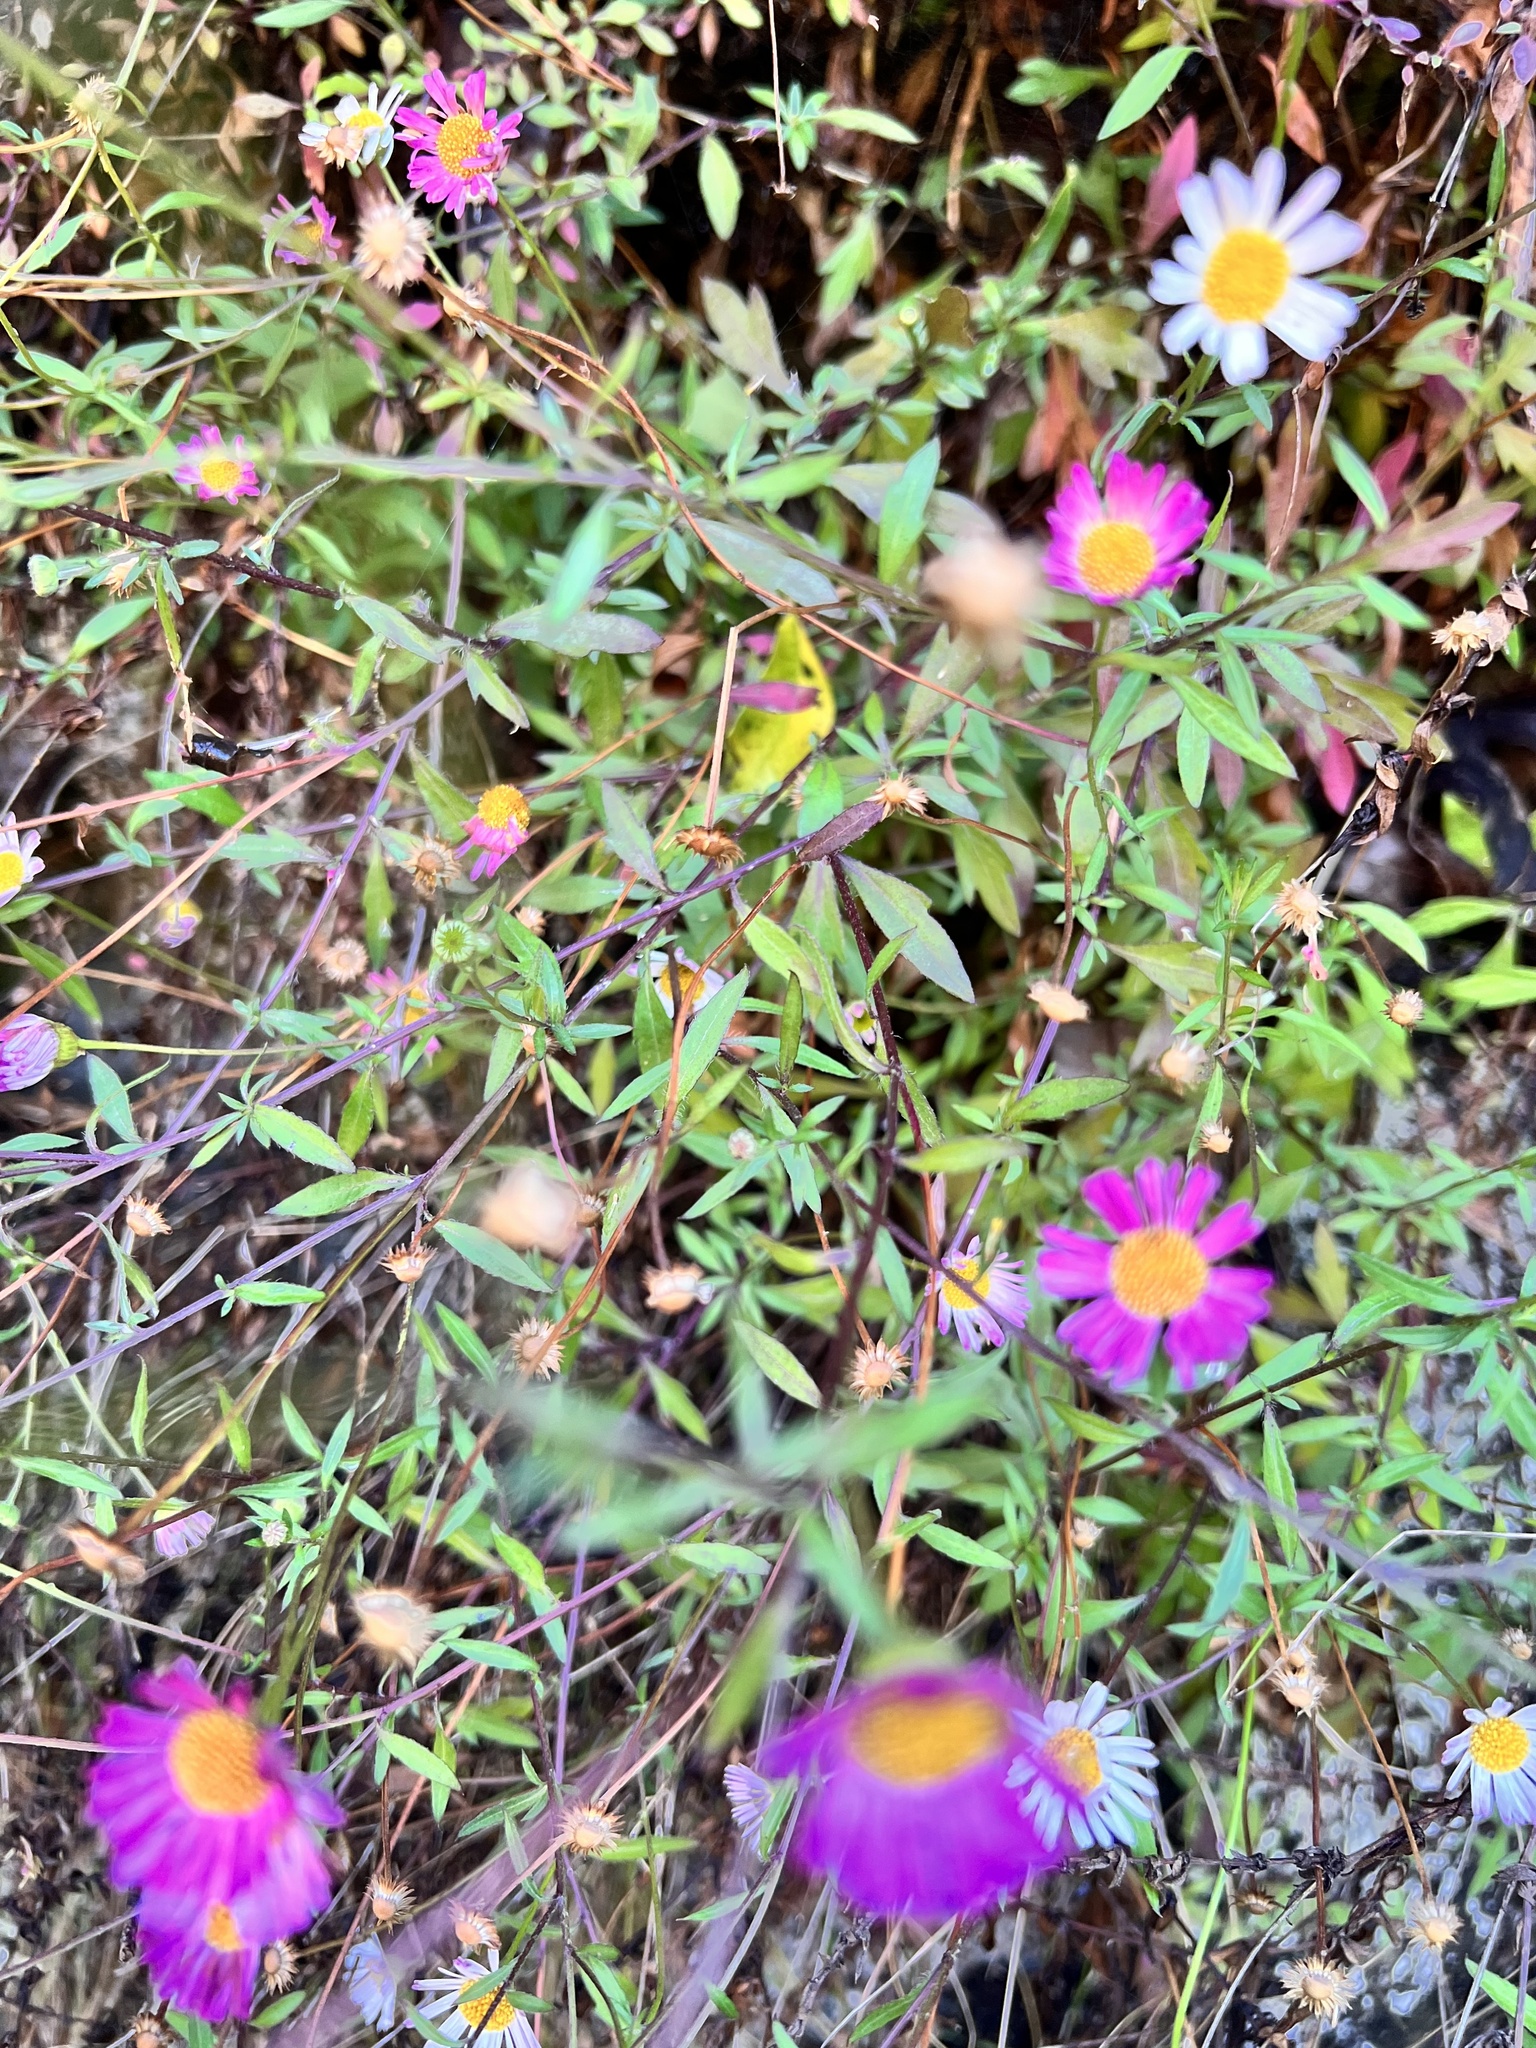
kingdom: Plantae
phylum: Tracheophyta
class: Magnoliopsida
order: Asterales
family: Asteraceae
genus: Erigeron
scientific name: Erigeron karvinskianus
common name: Mexican fleabane
